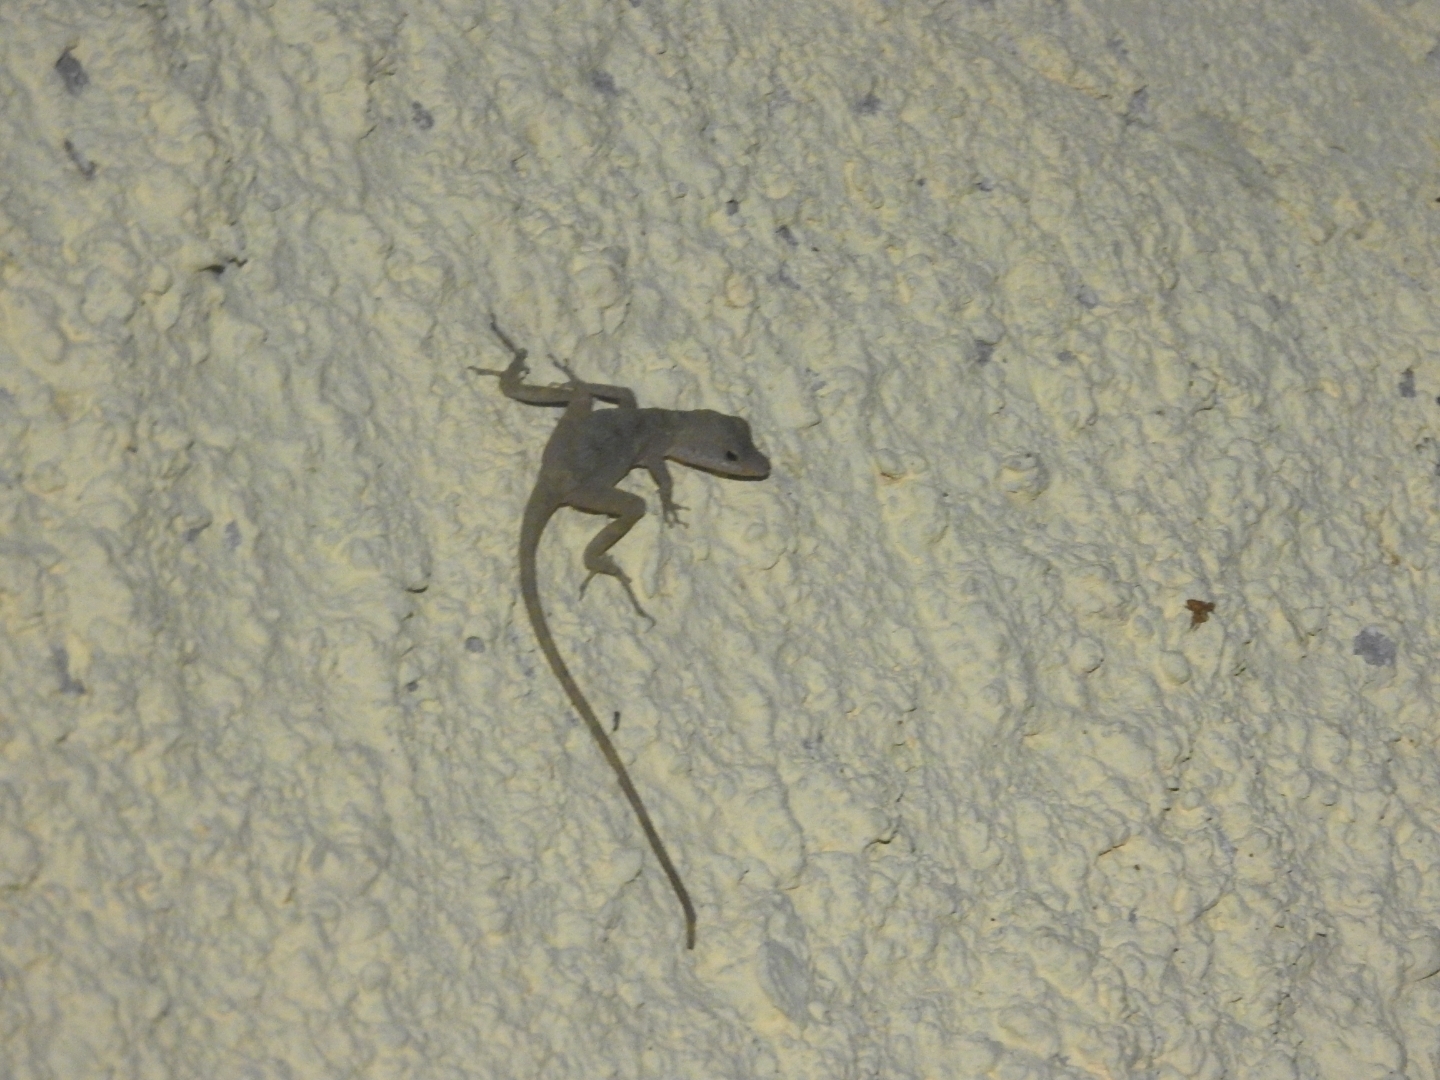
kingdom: Animalia
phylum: Chordata
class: Squamata
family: Dactyloidae
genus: Anolis
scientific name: Anolis rodriguezii
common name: Middle american smooth anole
